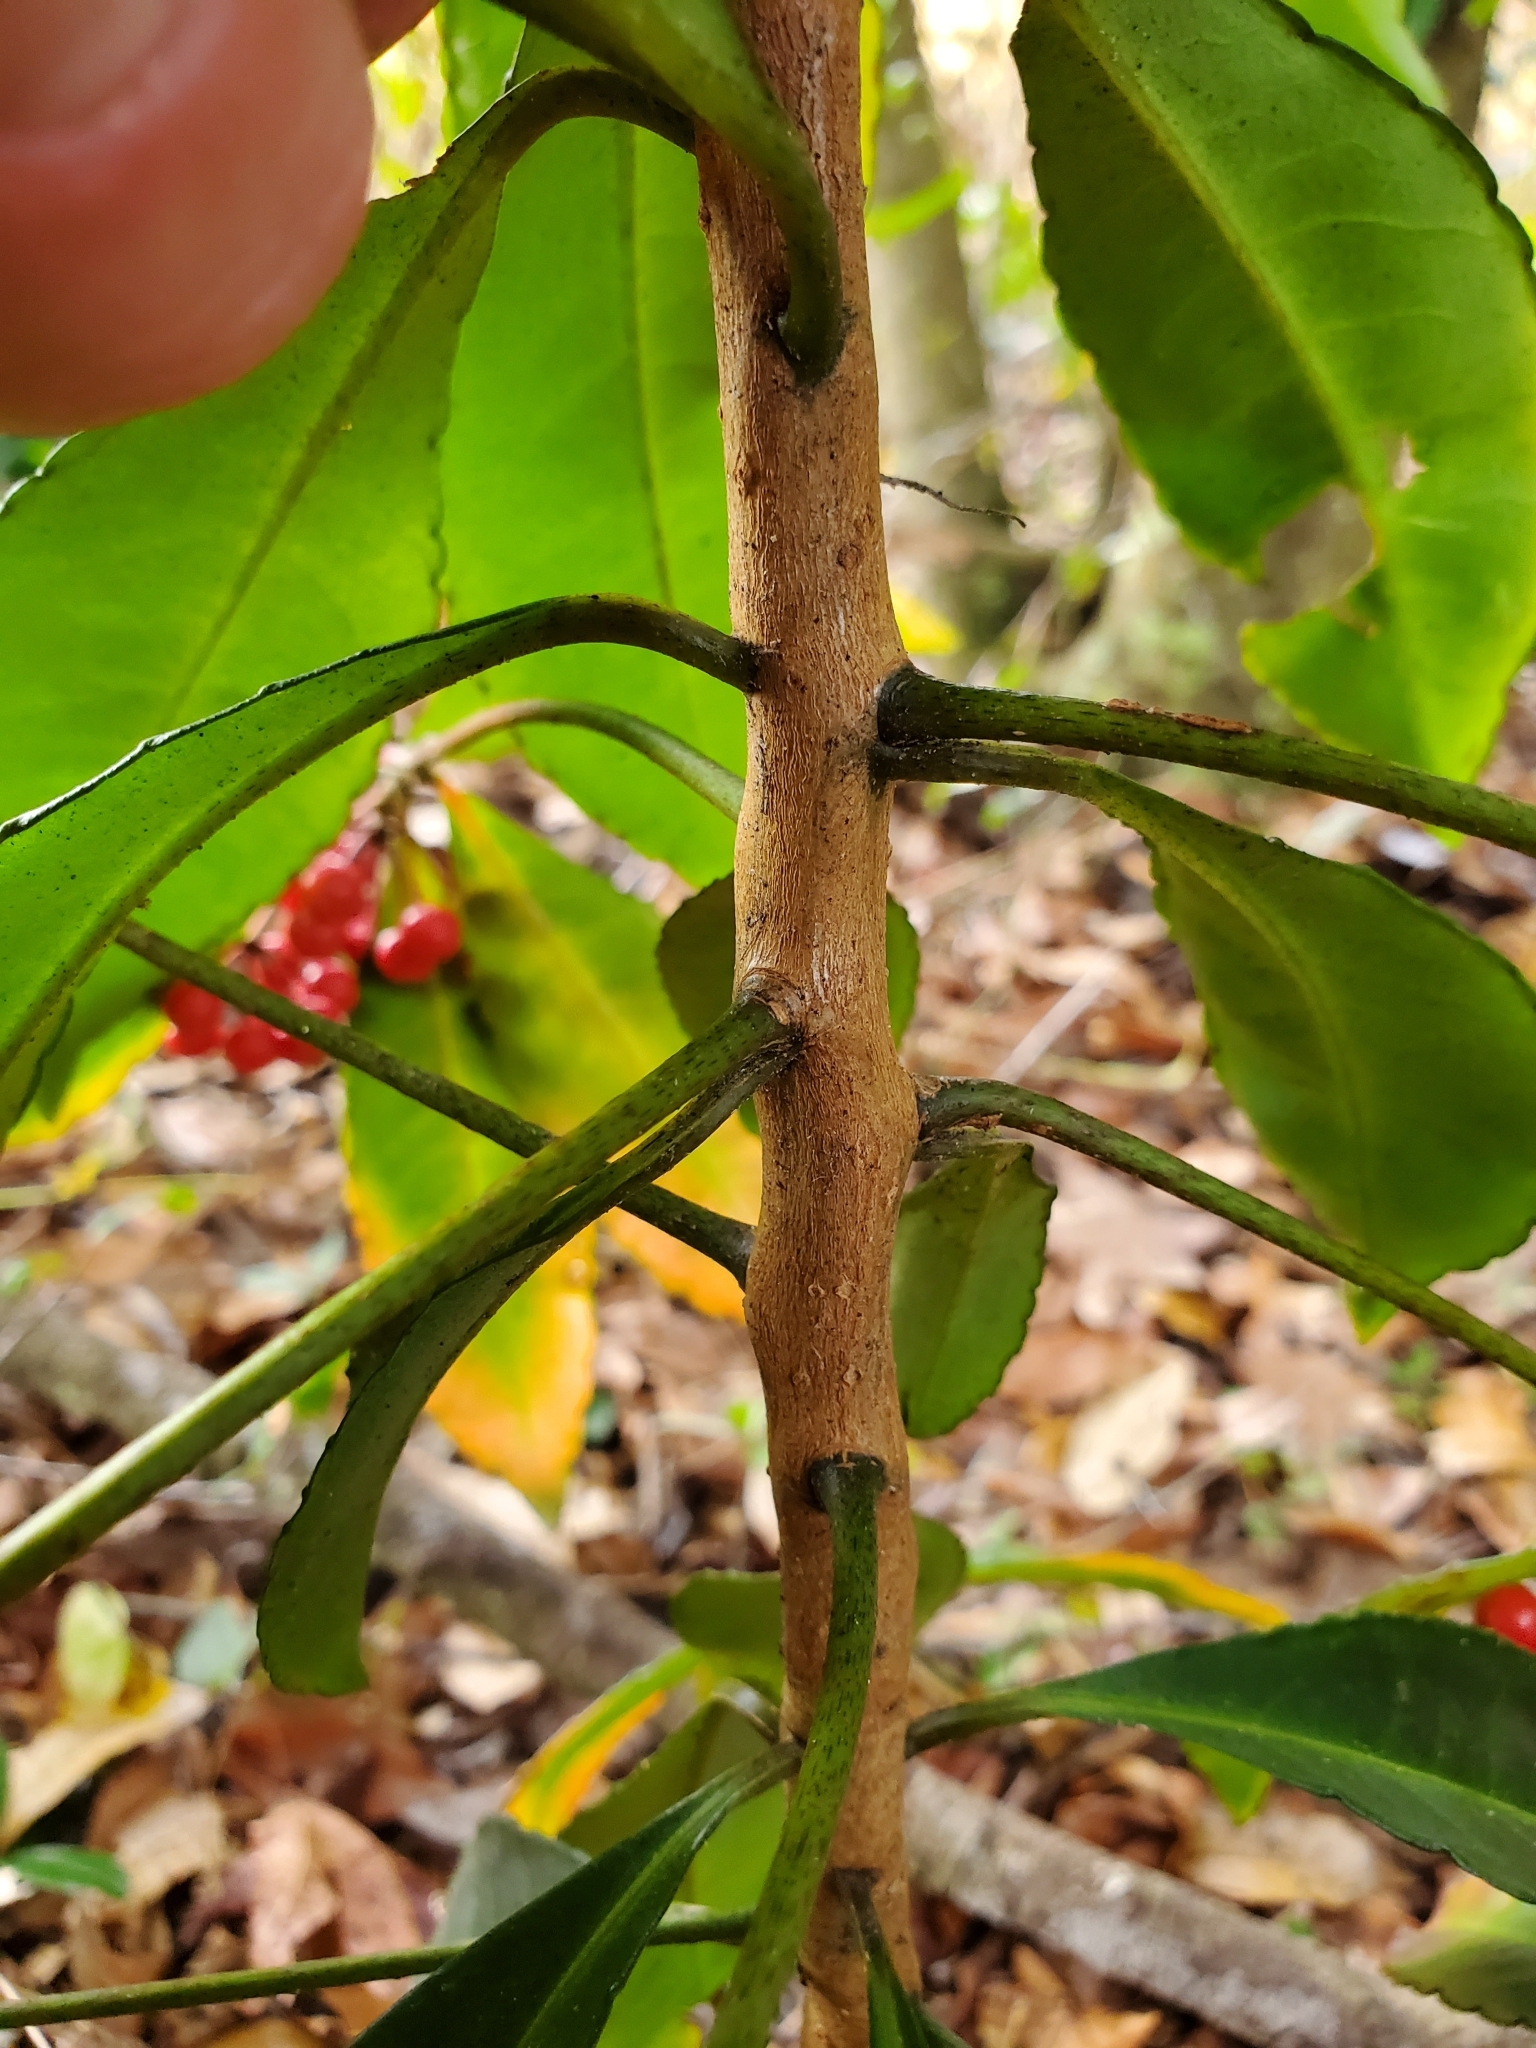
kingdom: Plantae
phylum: Tracheophyta
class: Magnoliopsida
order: Ericales
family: Primulaceae
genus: Ardisia
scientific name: Ardisia crenata
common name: Hen's eyes
